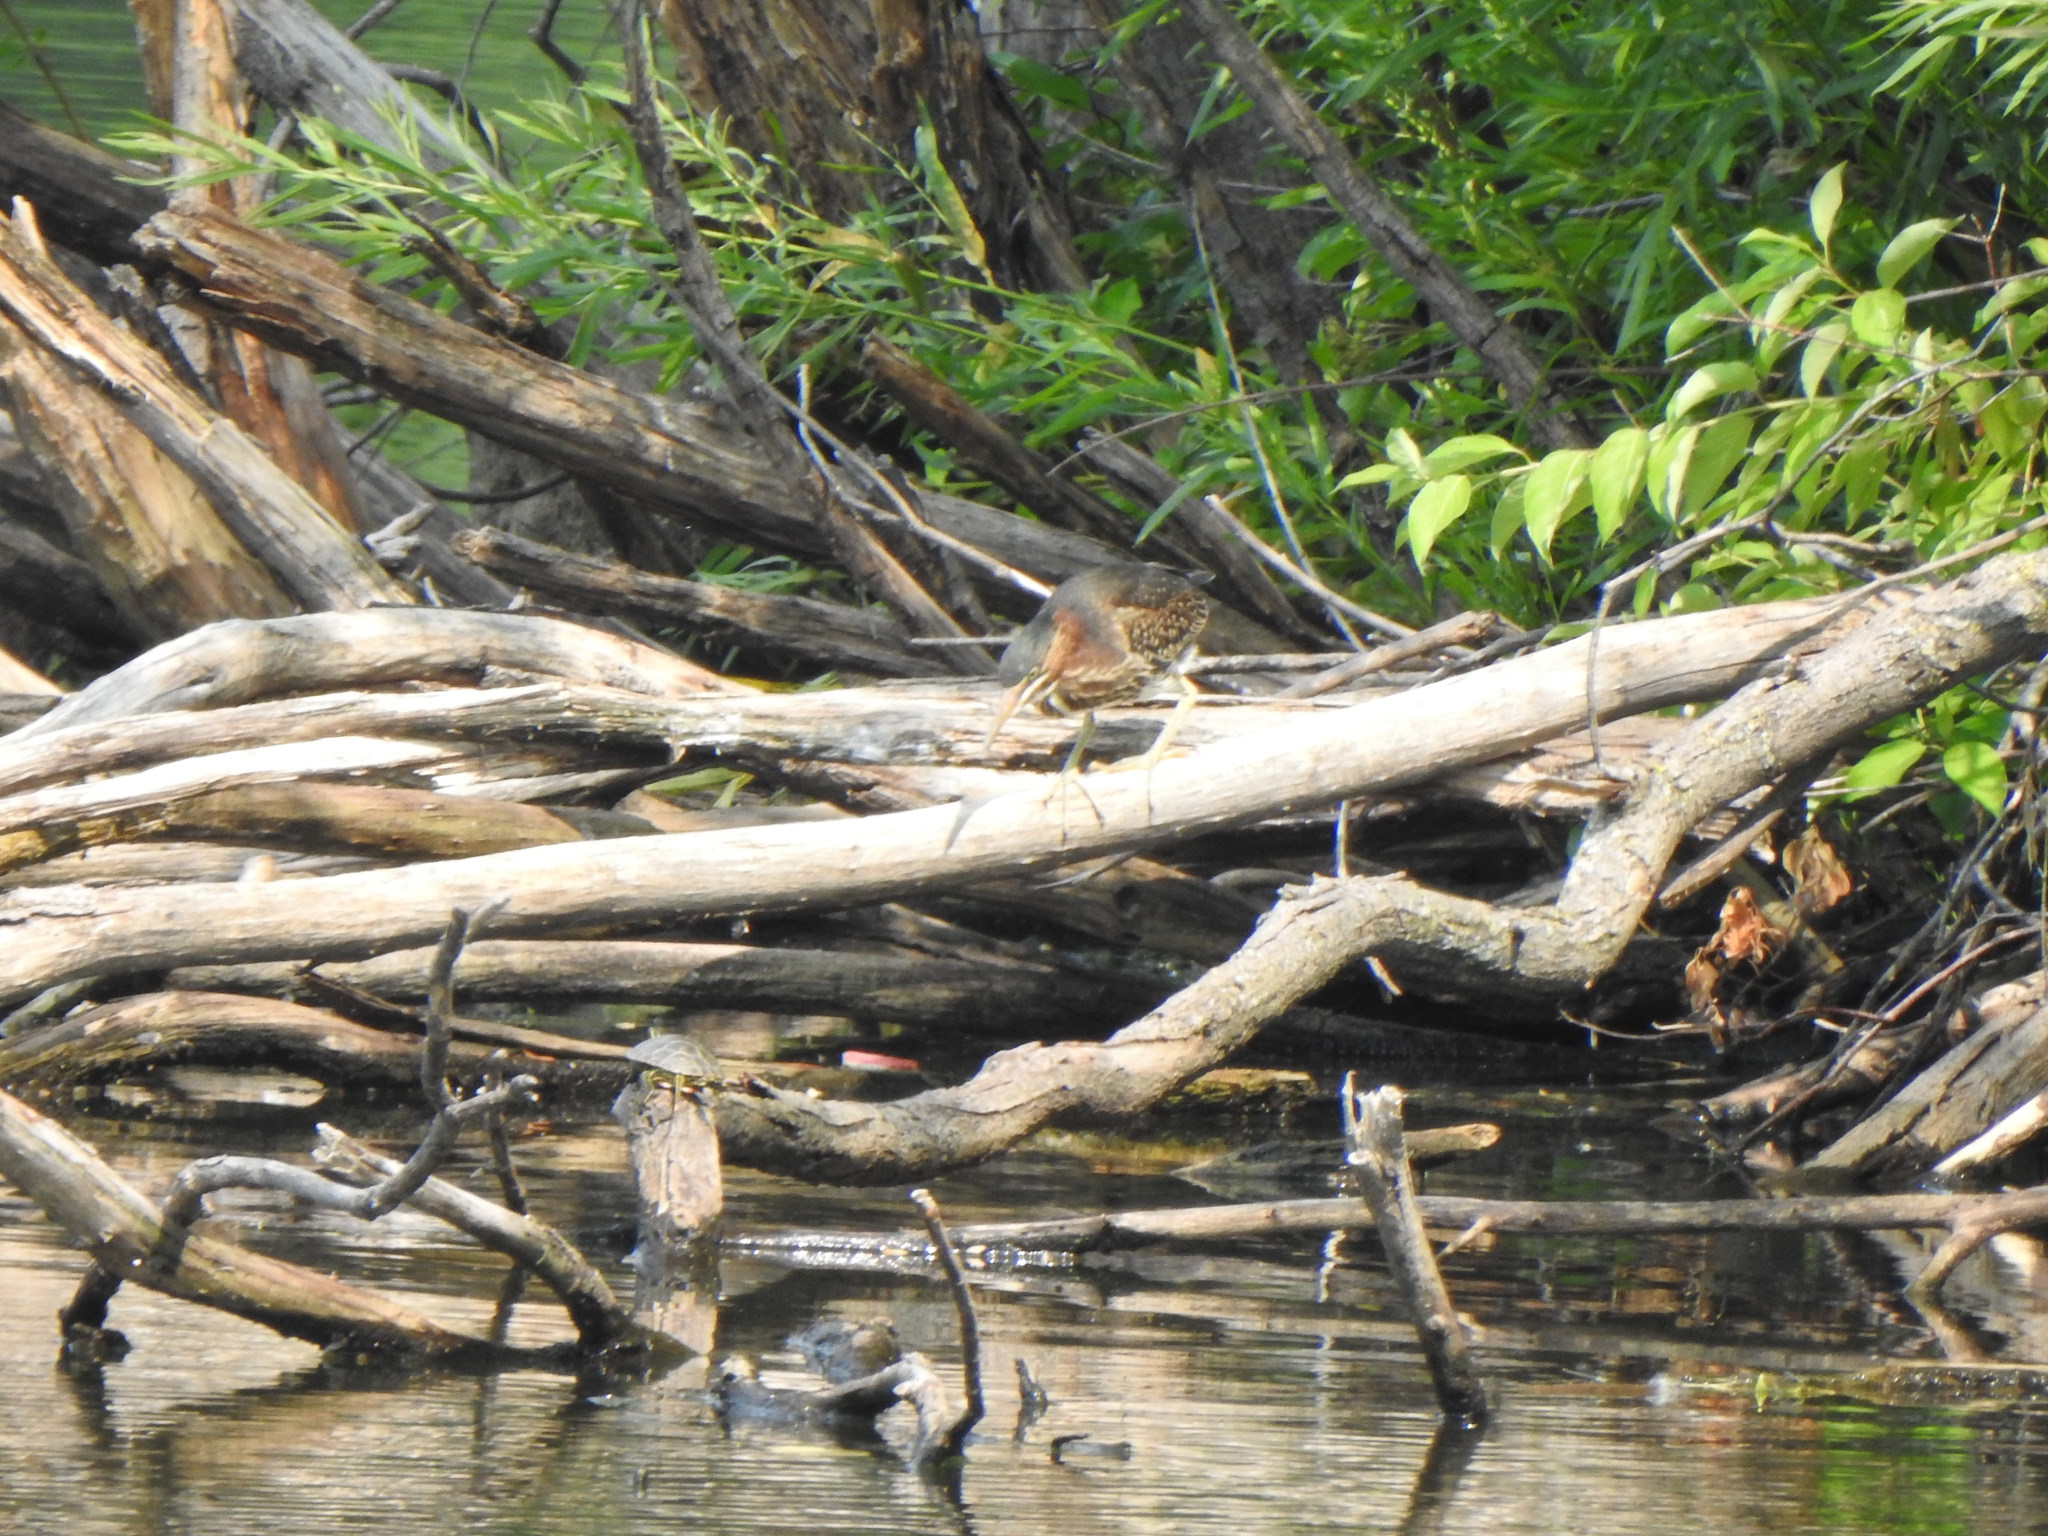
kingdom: Animalia
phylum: Chordata
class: Aves
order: Pelecaniformes
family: Ardeidae
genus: Butorides
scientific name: Butorides virescens
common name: Green heron
